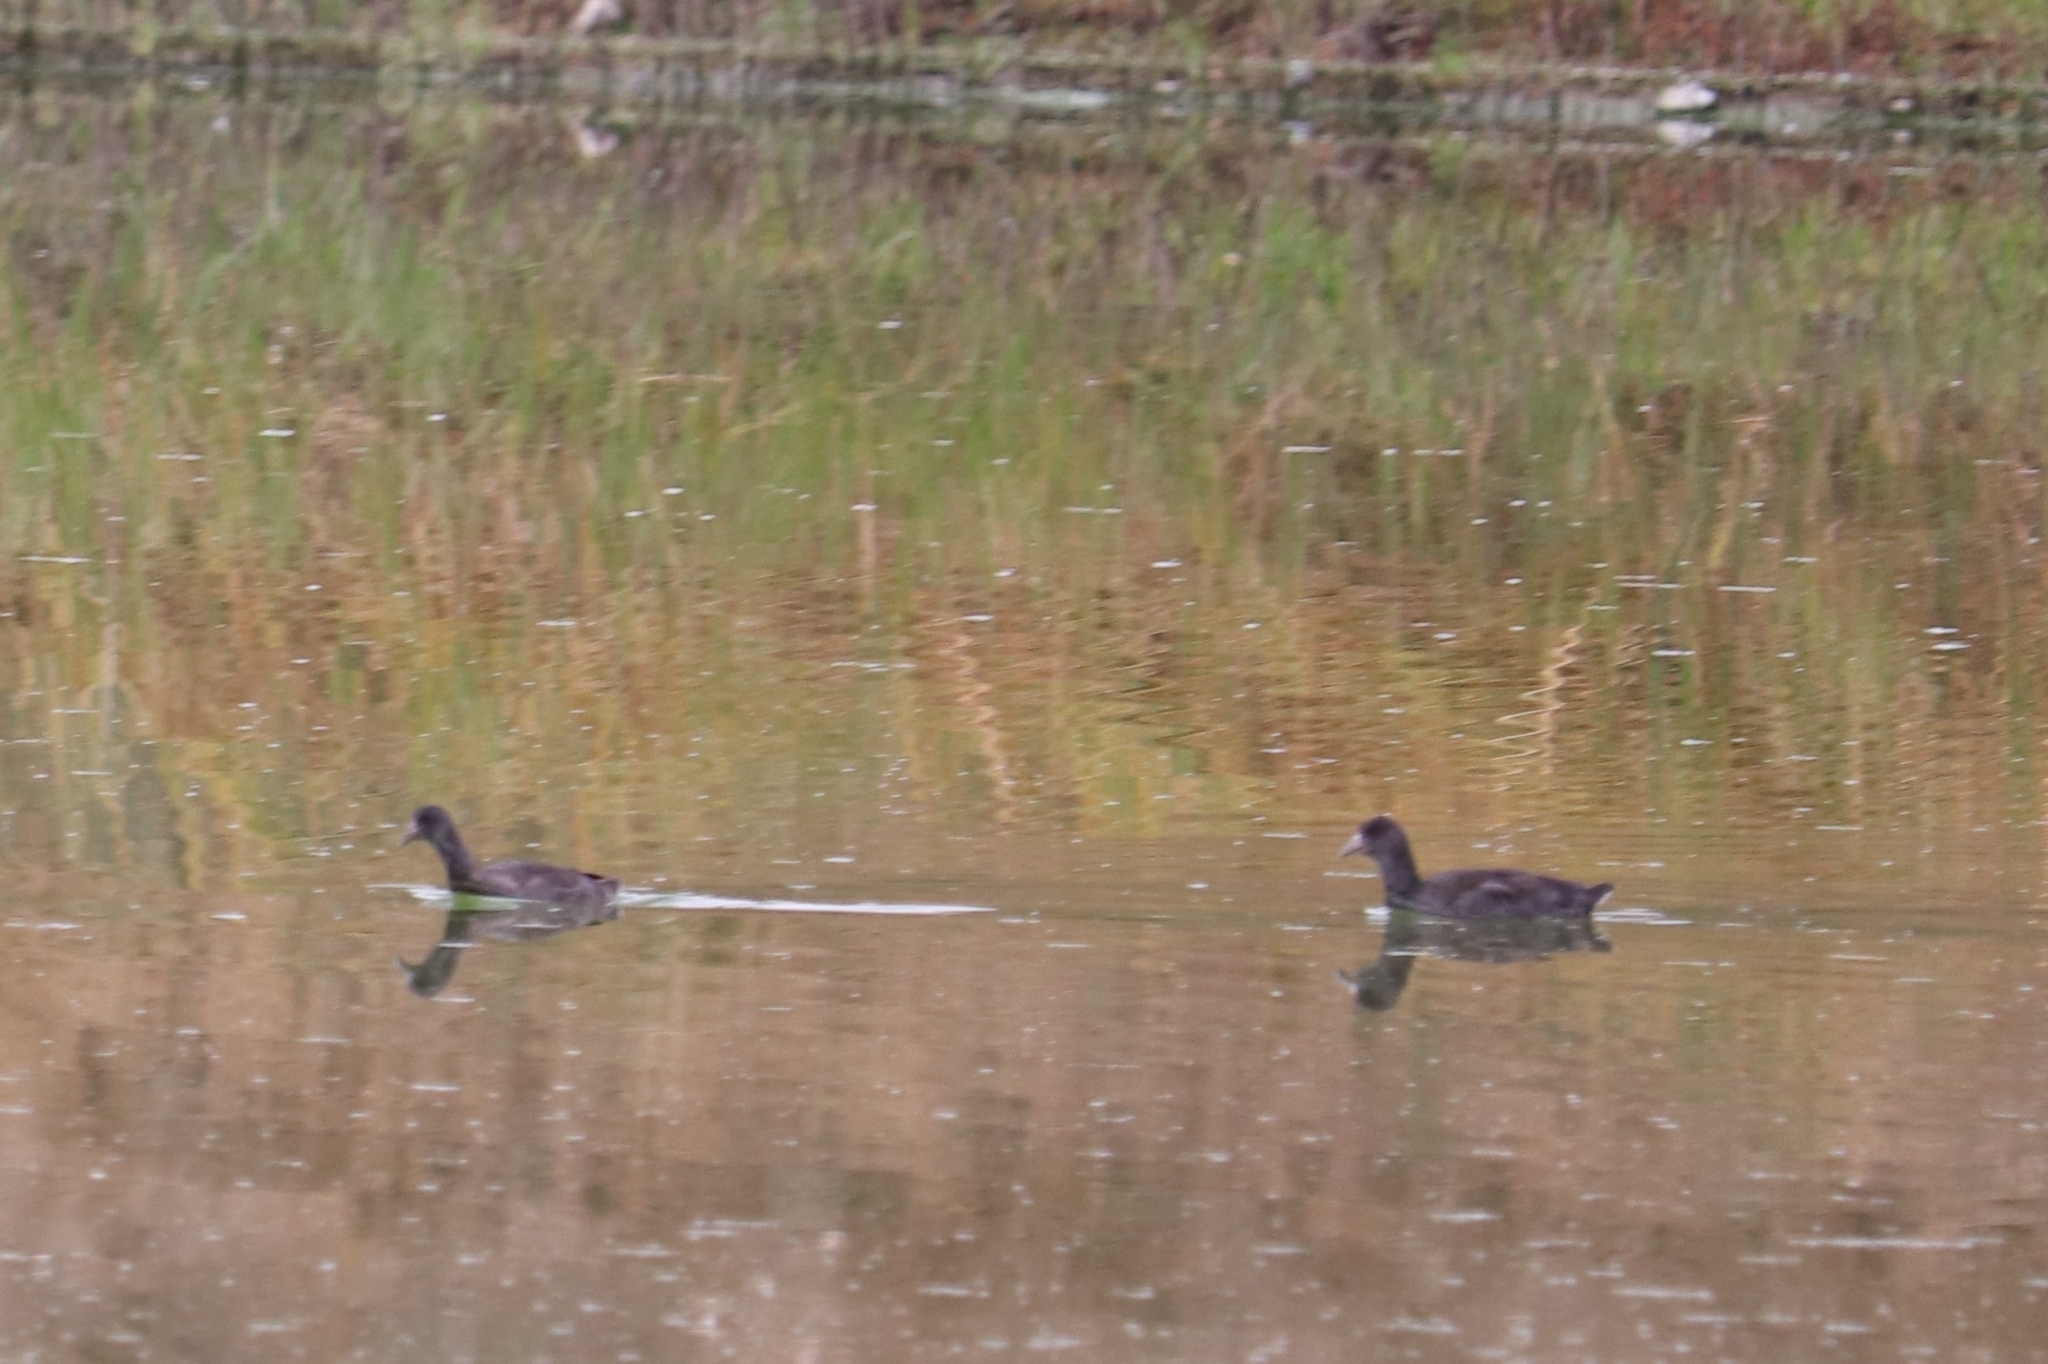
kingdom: Animalia
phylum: Chordata
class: Aves
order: Gruiformes
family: Rallidae
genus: Fulica
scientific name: Fulica americana
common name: American coot
